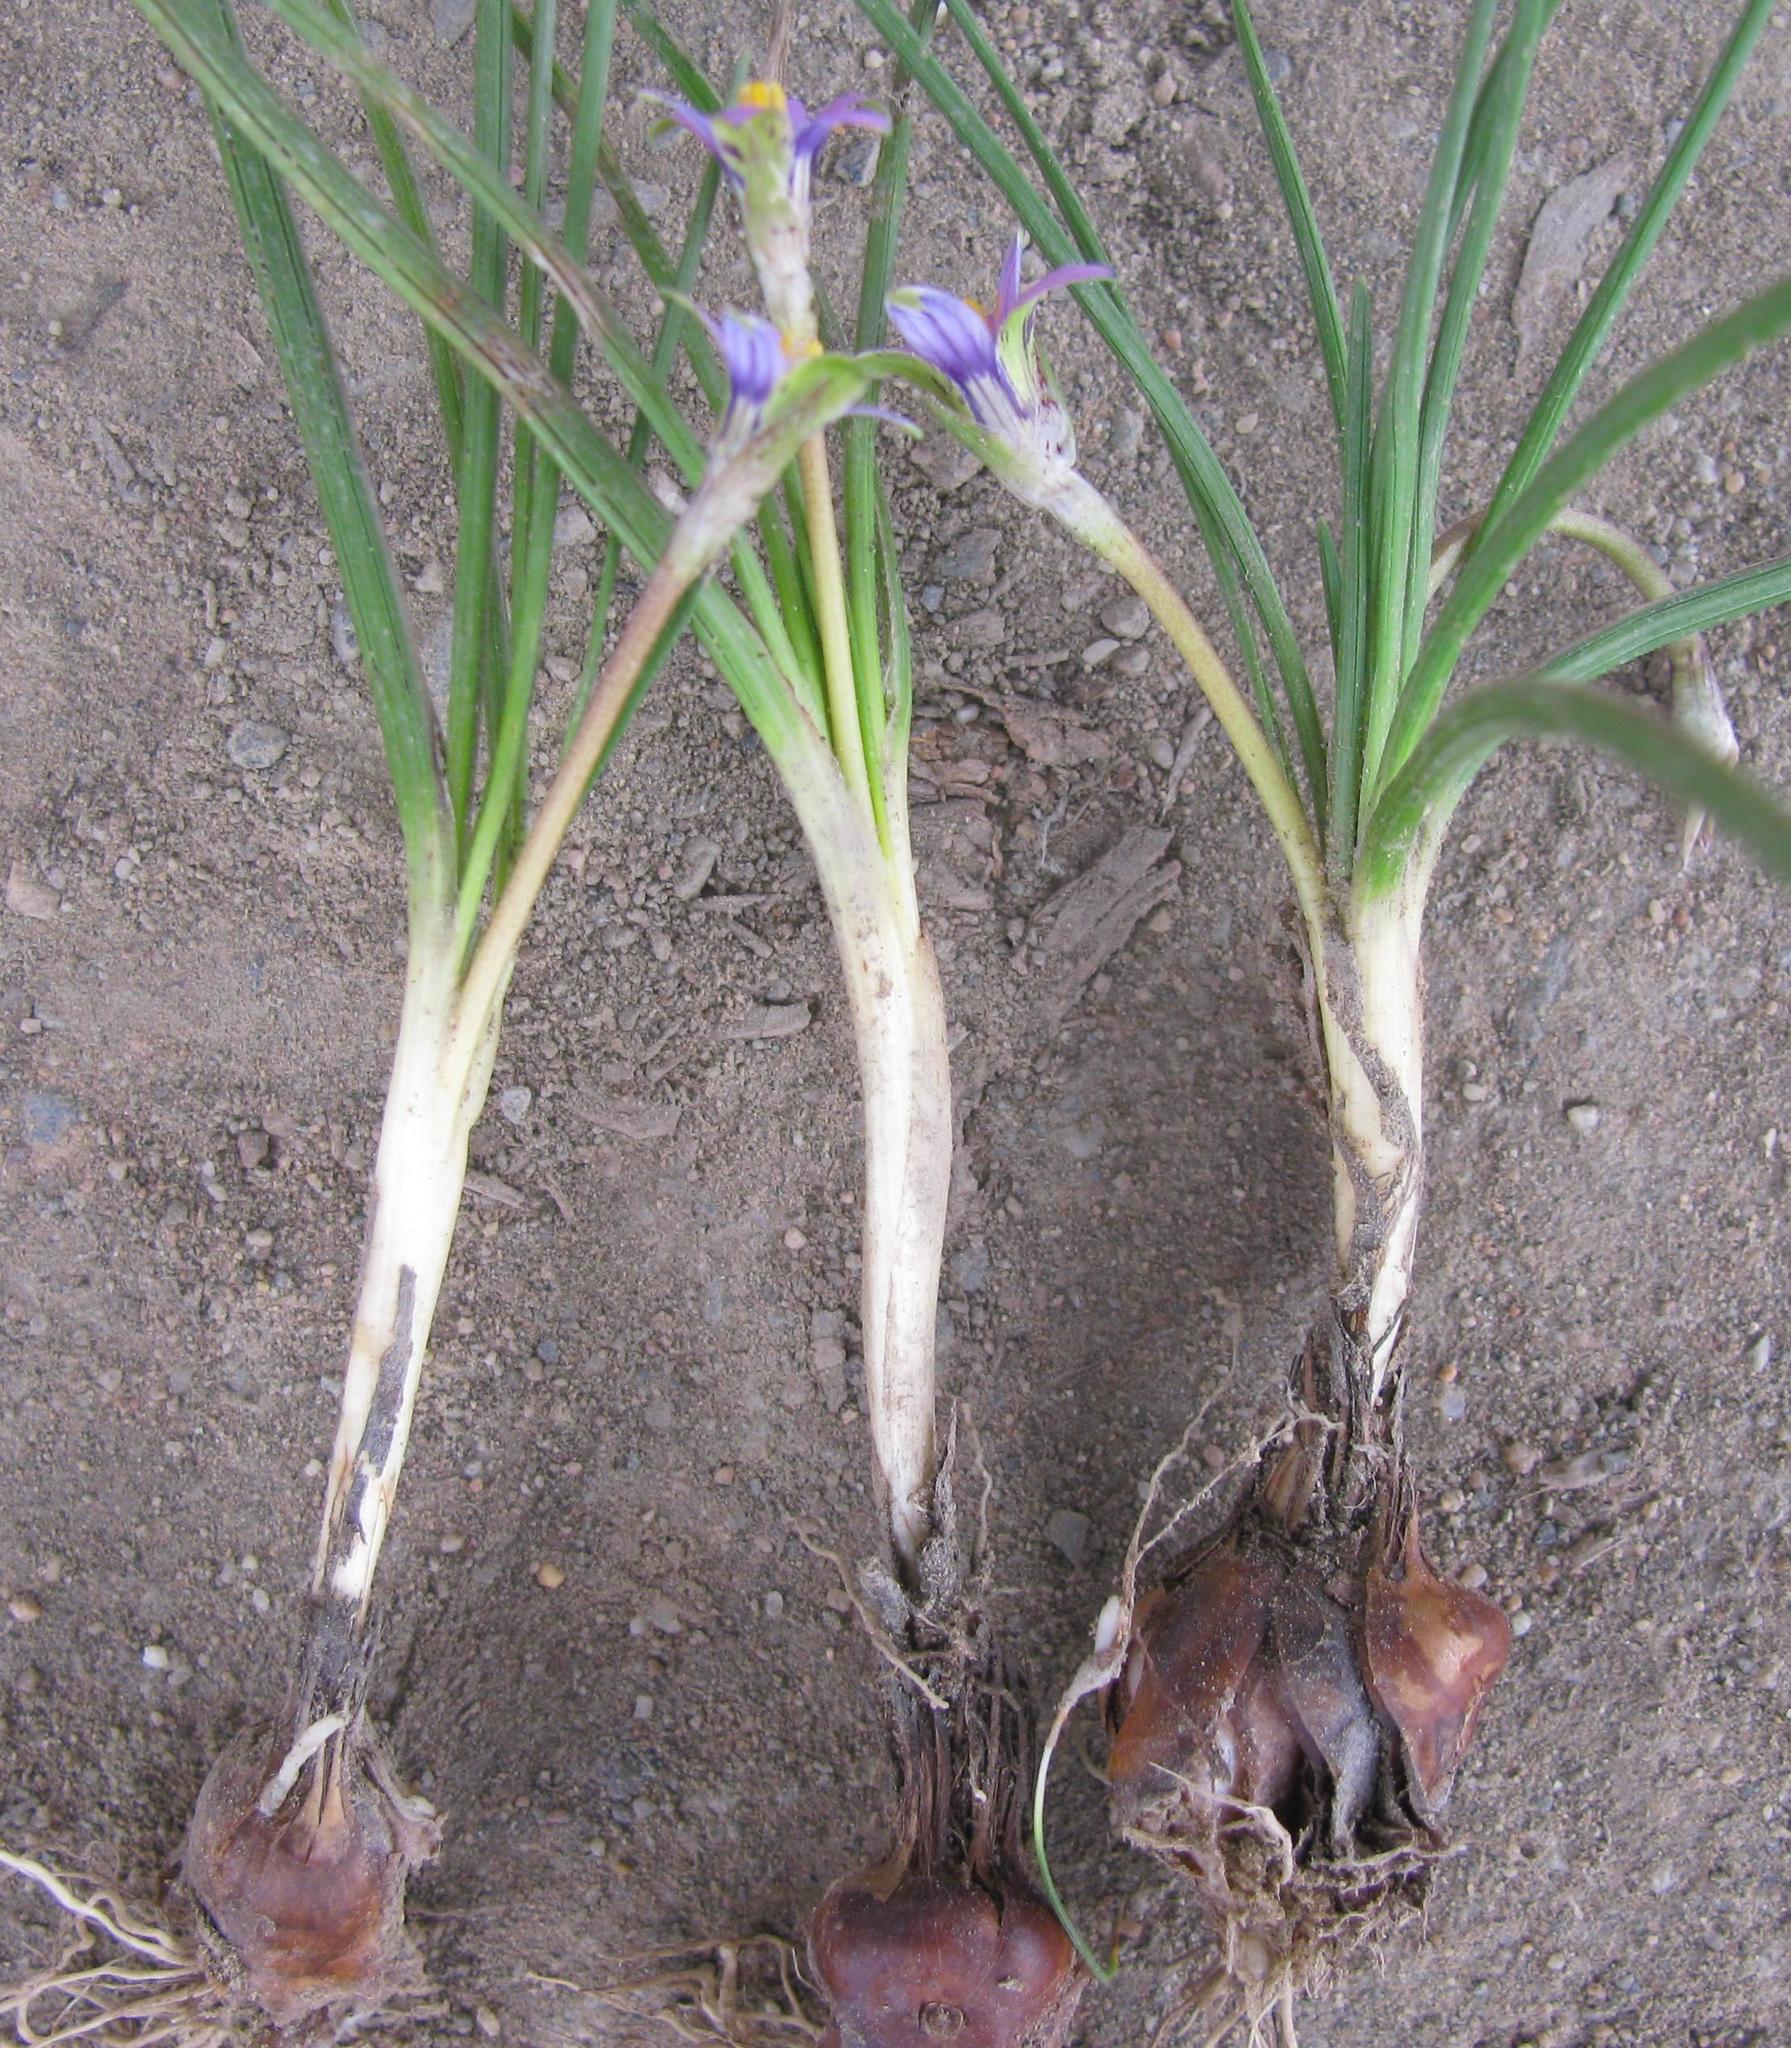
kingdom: Plantae
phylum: Tracheophyta
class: Liliopsida
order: Asparagales
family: Iridaceae
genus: Romulea
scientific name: Romulea minutiflora
